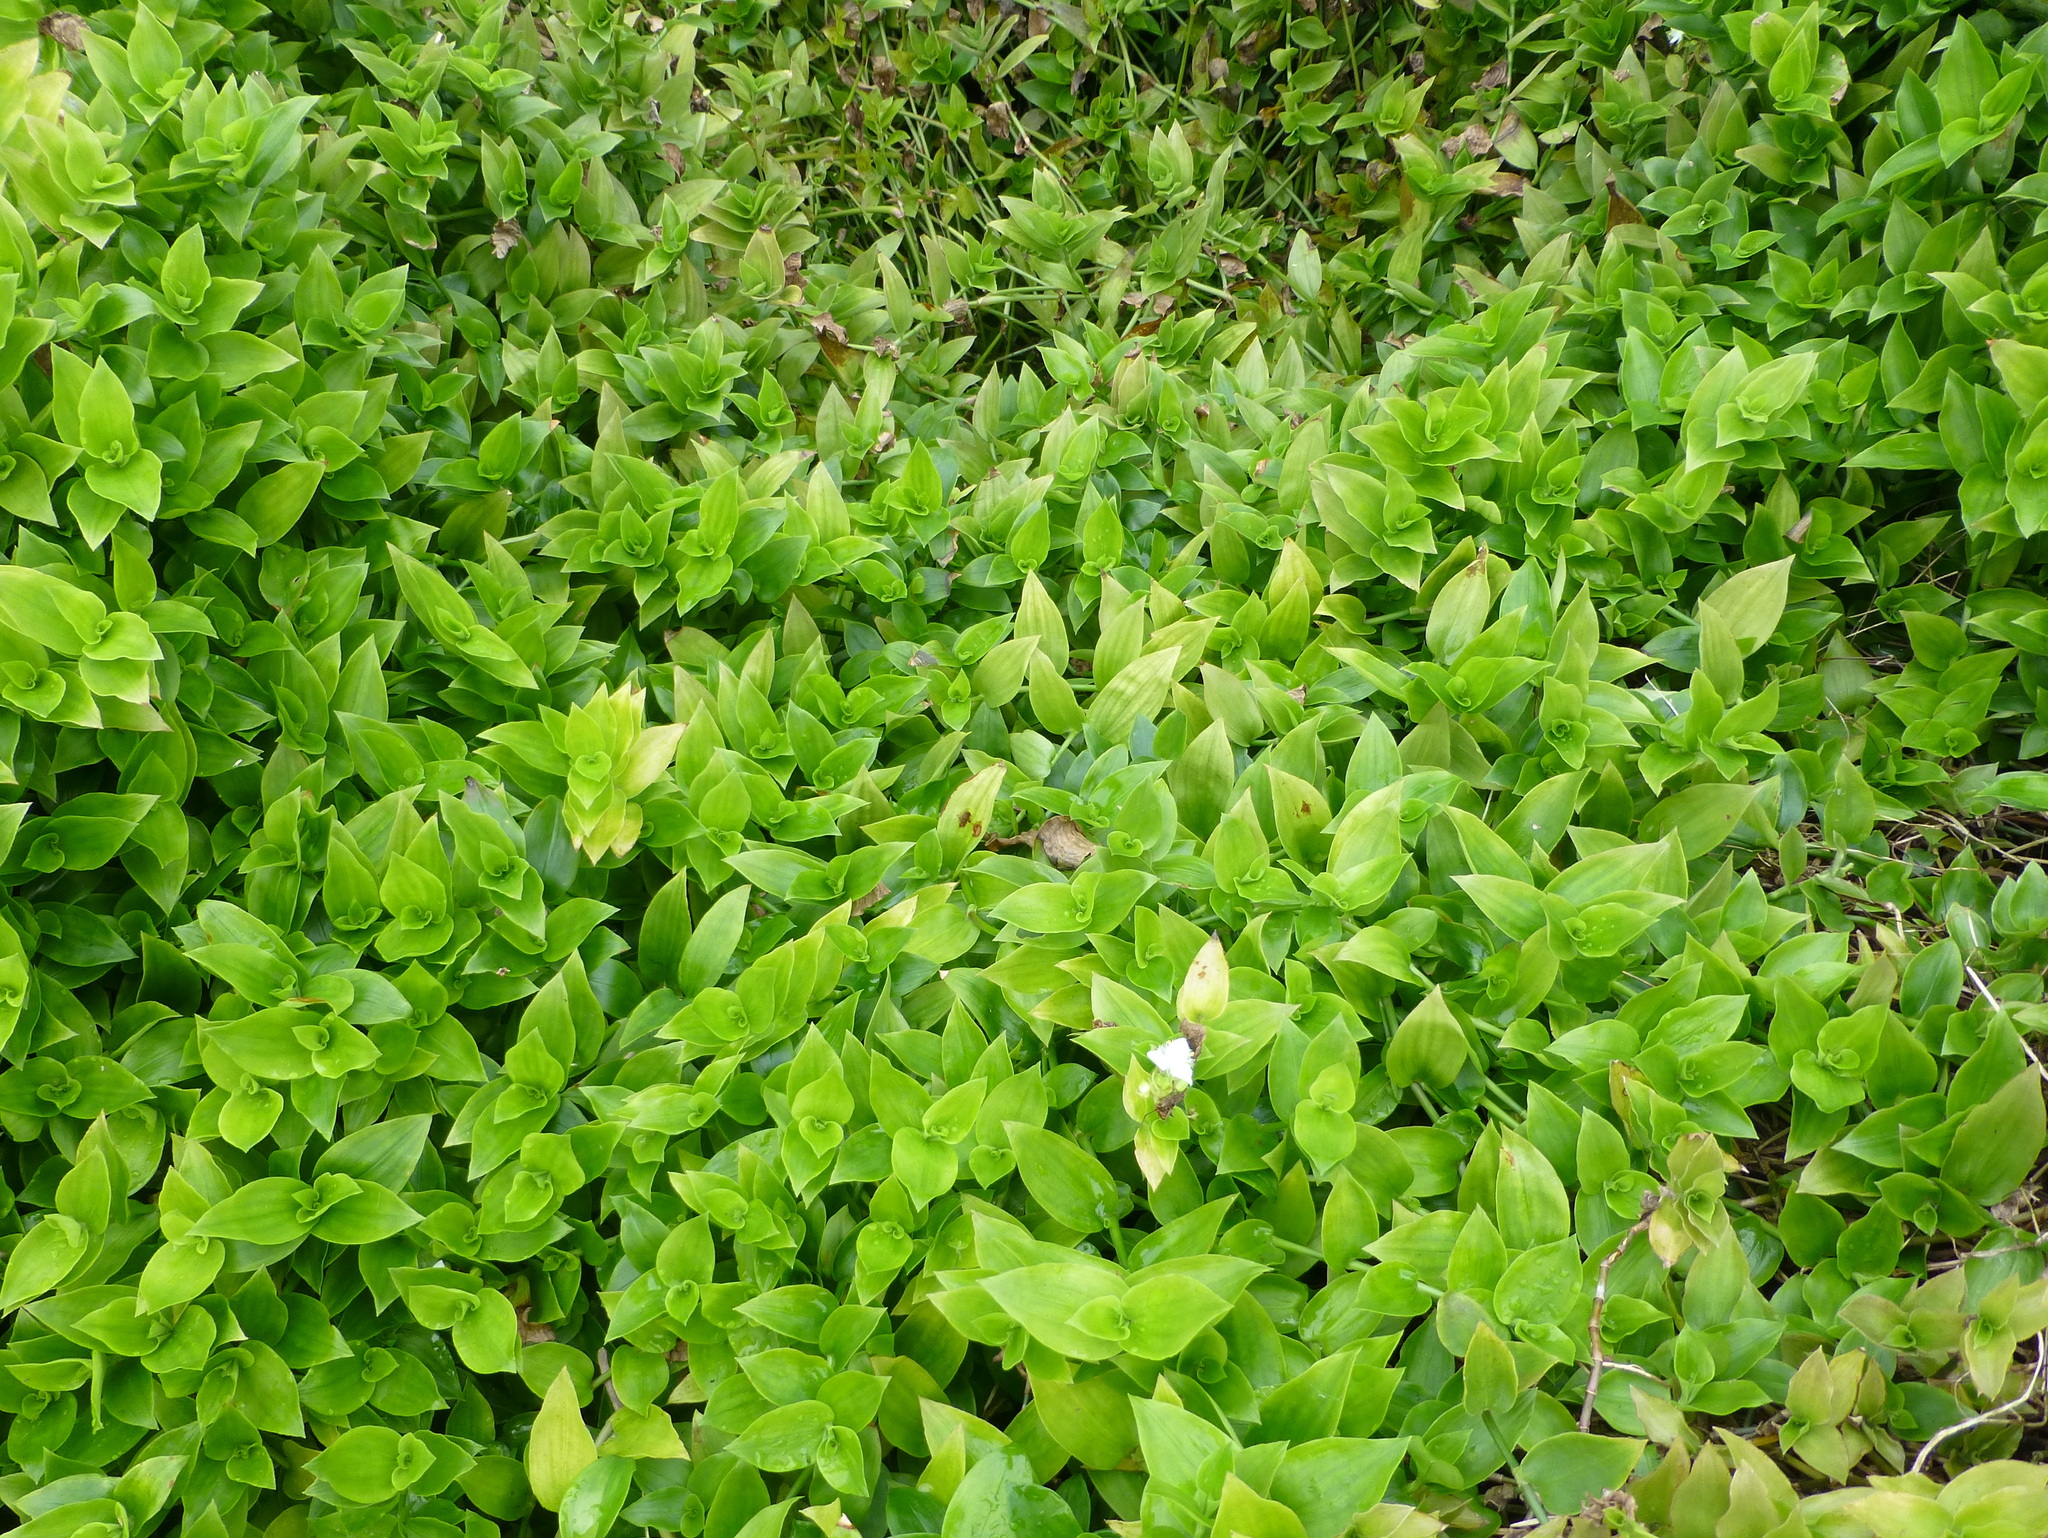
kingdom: Plantae
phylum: Tracheophyta
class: Liliopsida
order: Commelinales
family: Commelinaceae
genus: Tradescantia
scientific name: Tradescantia fluminensis
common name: Wandering-jew
